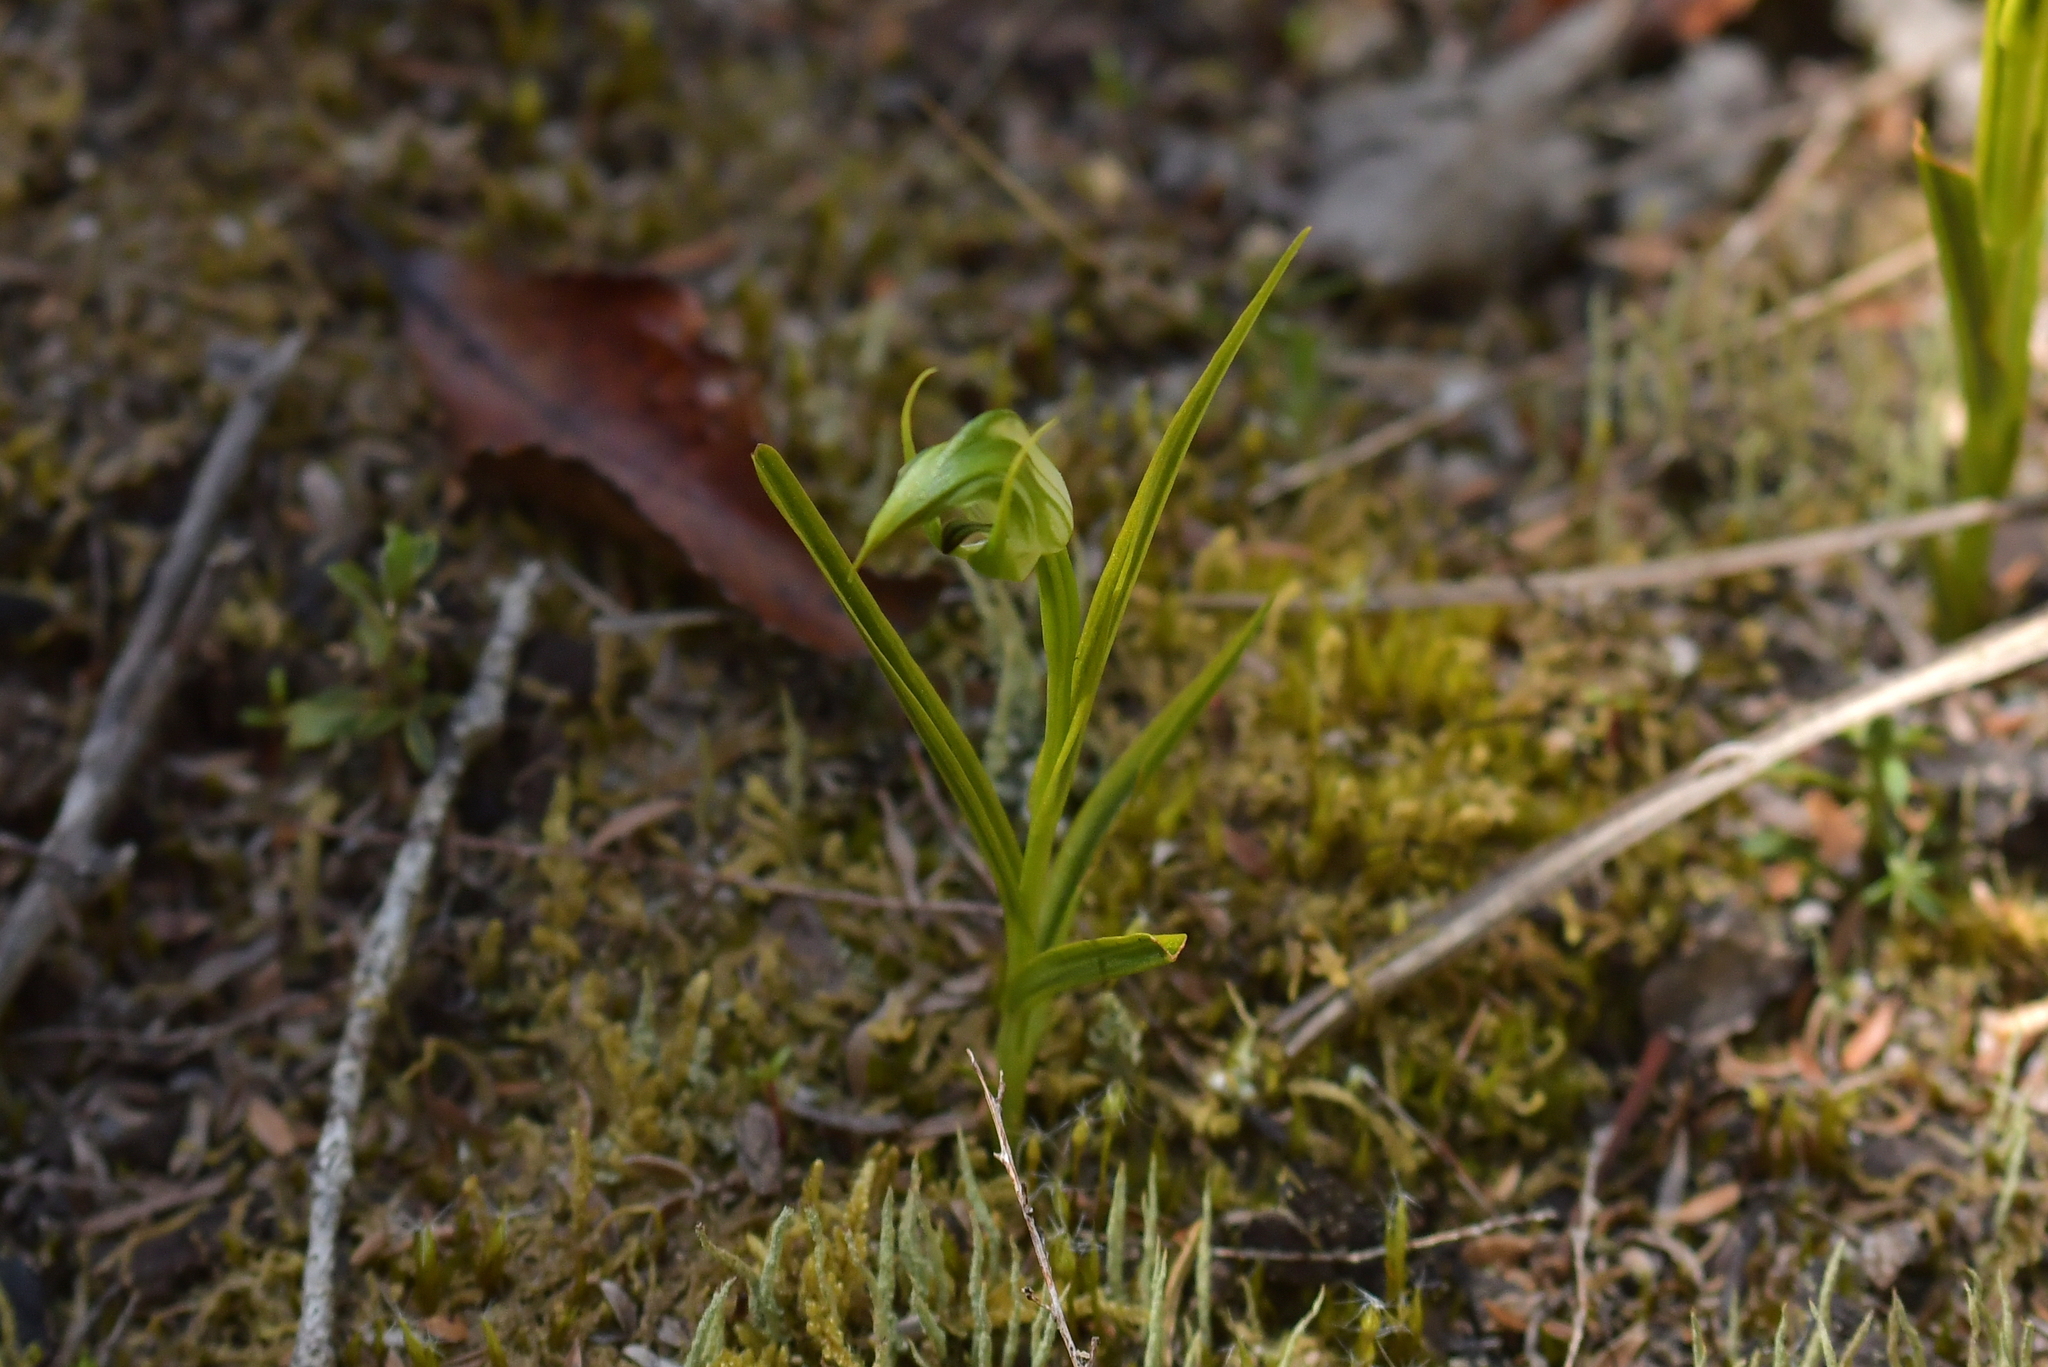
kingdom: Plantae
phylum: Tracheophyta
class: Liliopsida
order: Asparagales
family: Orchidaceae
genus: Pterostylis
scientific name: Pterostylis graminea
